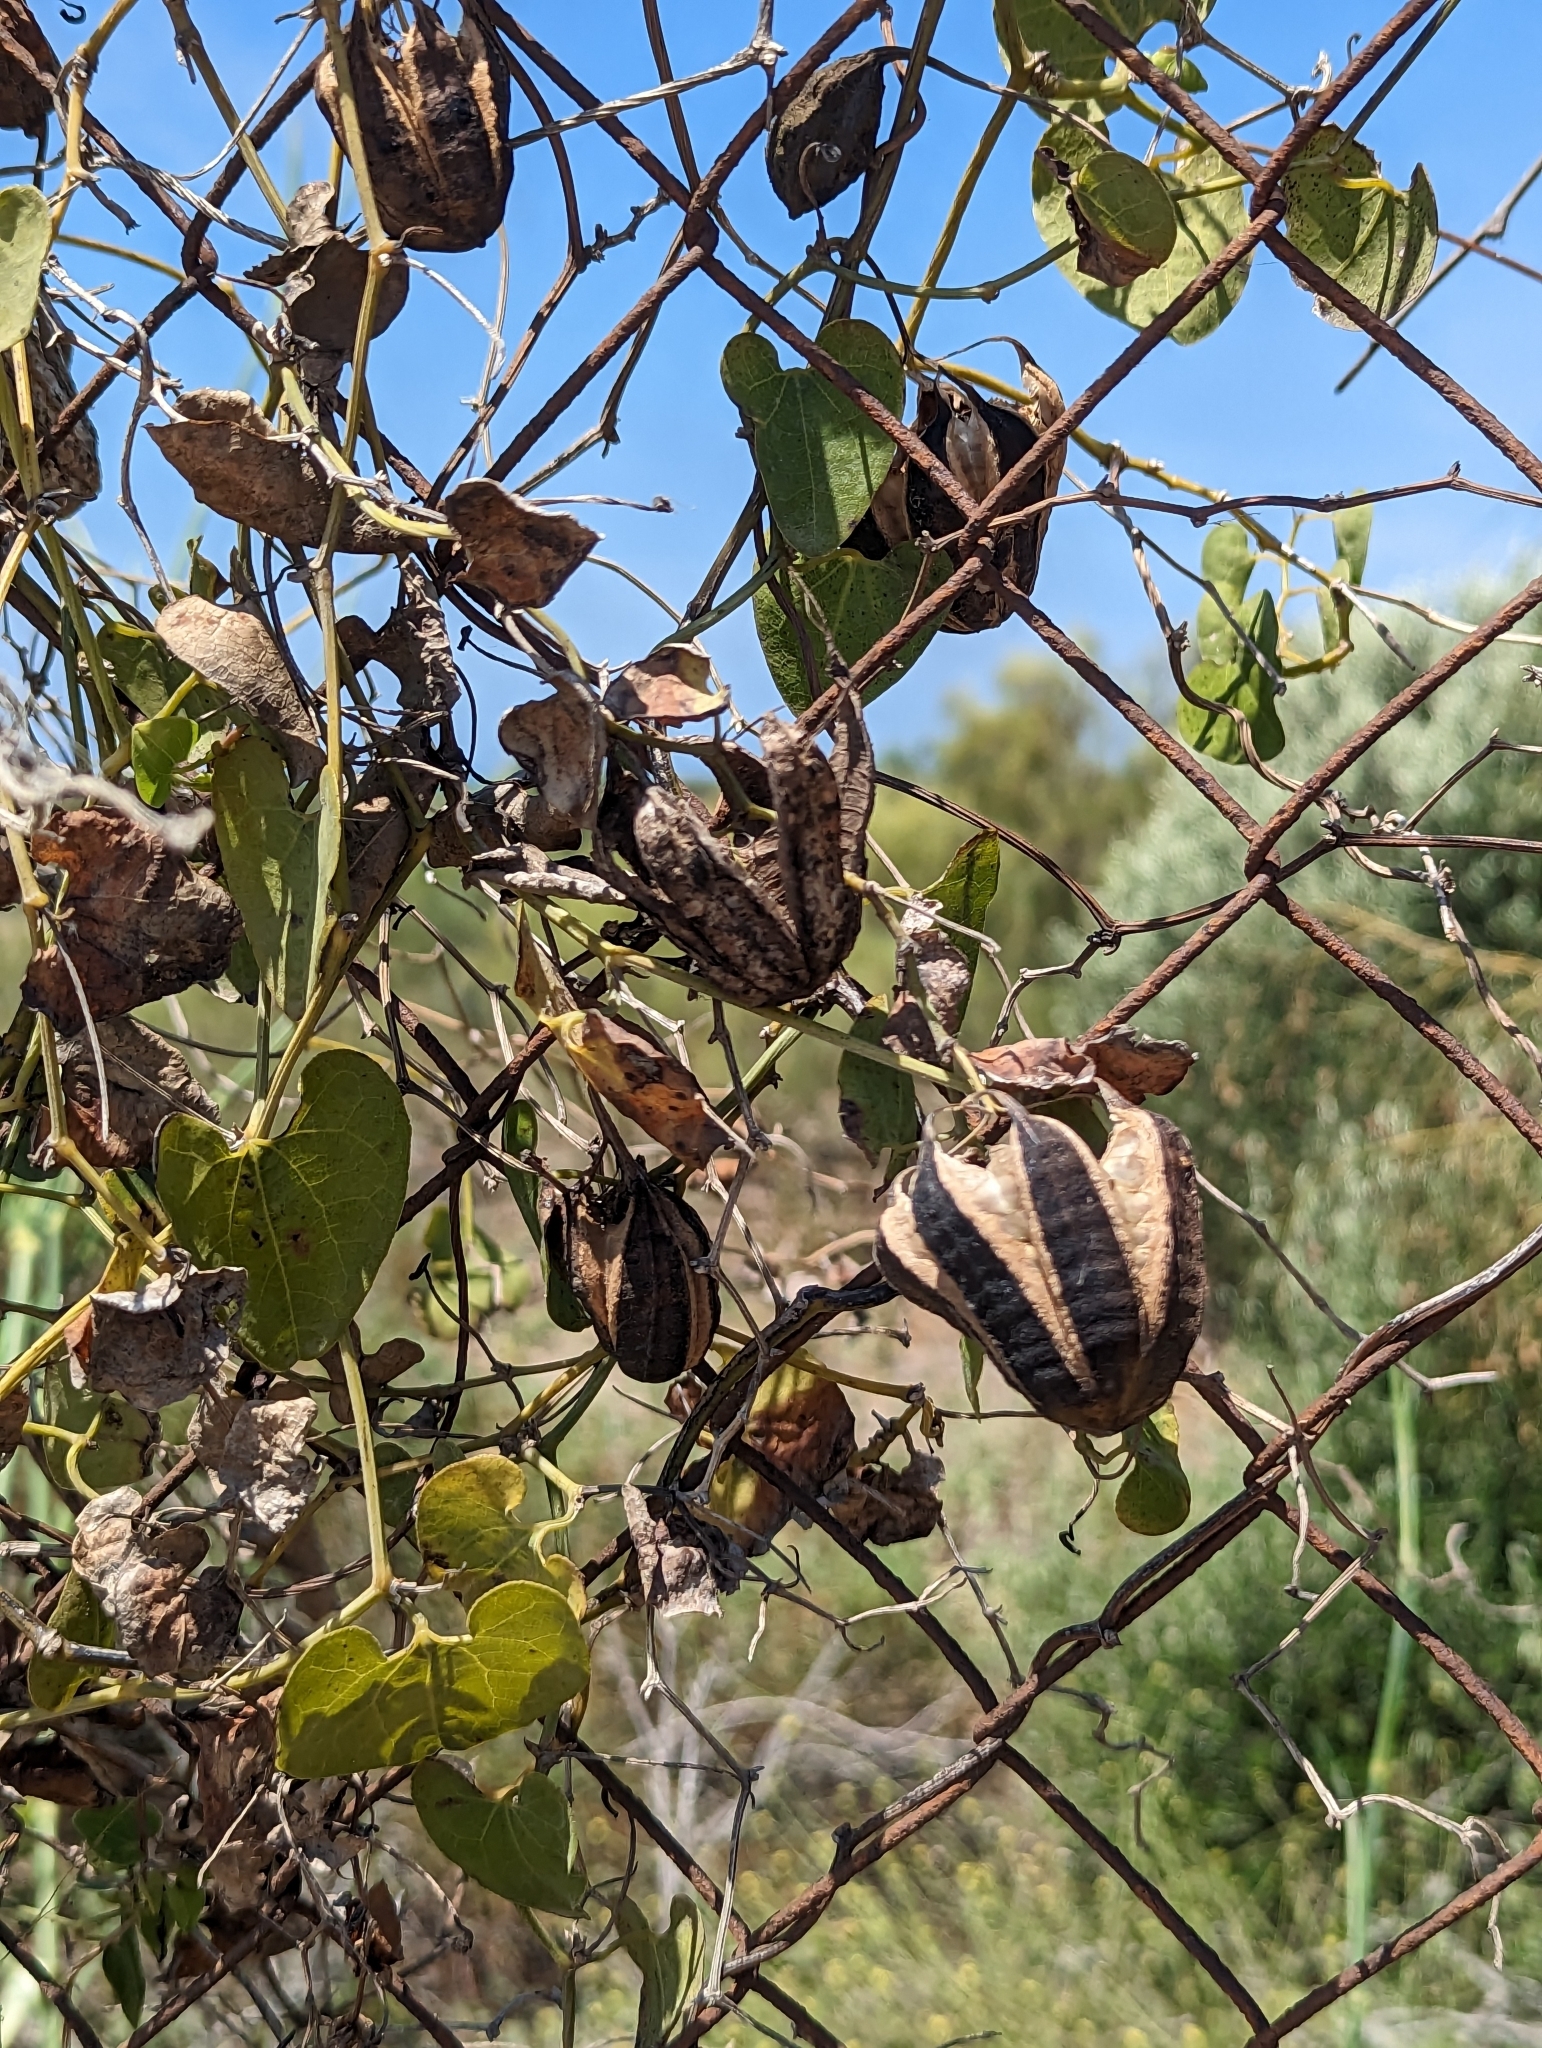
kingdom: Plantae
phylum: Tracheophyta
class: Magnoliopsida
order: Piperales
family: Aristolochiaceae
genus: Aristolochia
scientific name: Aristolochia baetica
